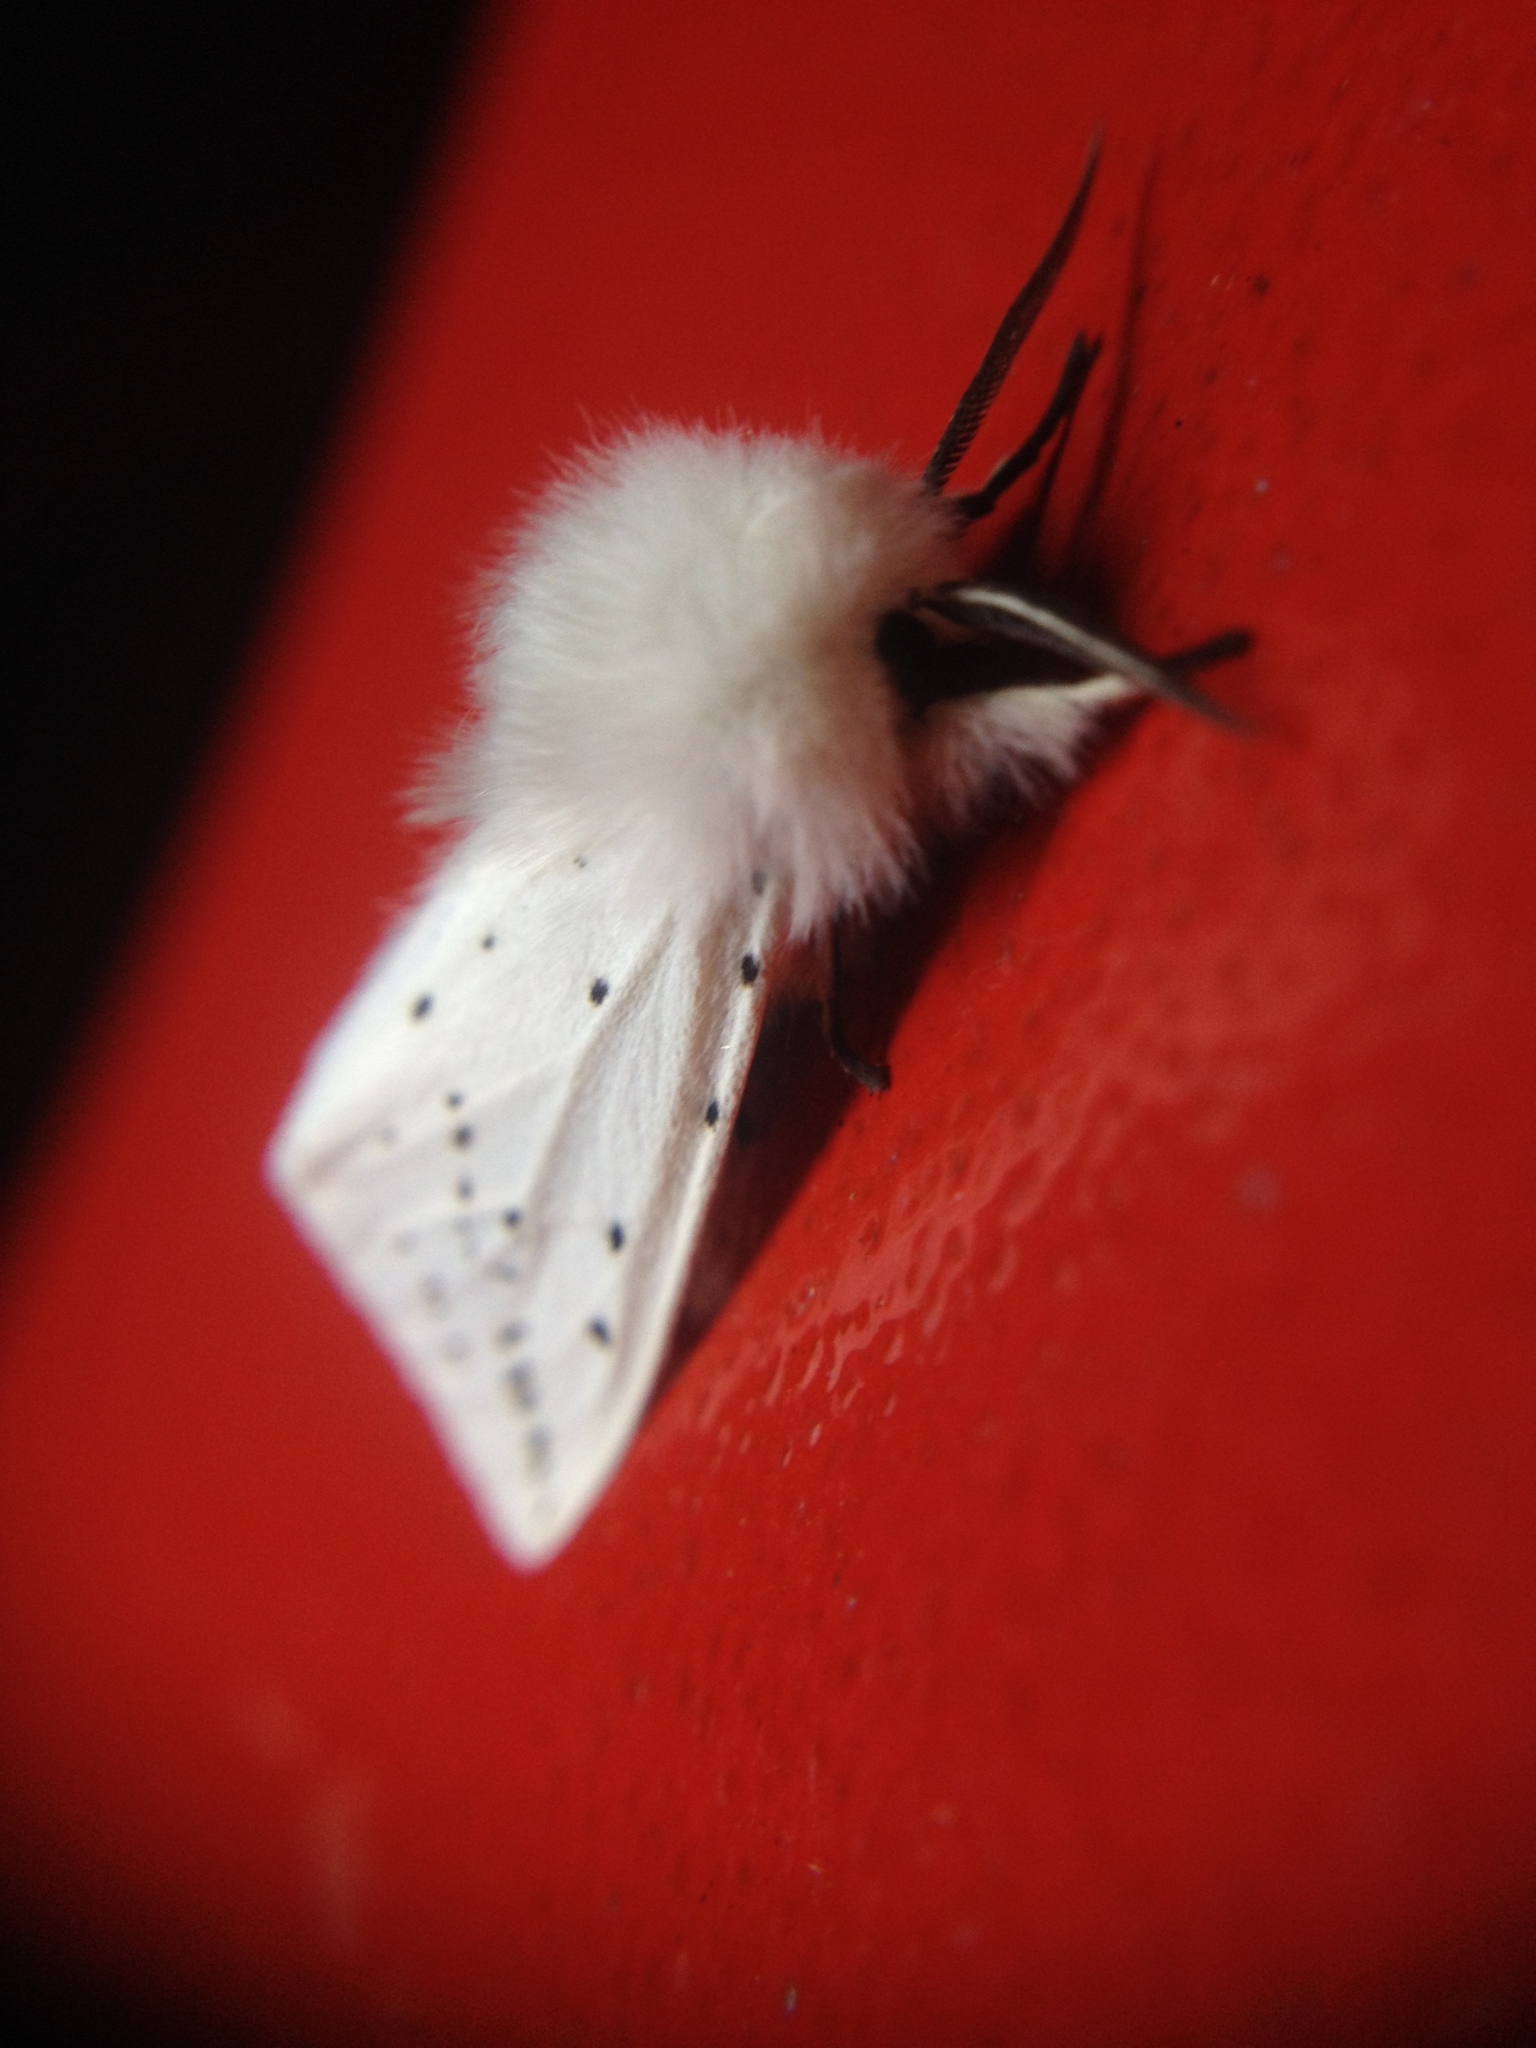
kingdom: Animalia
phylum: Arthropoda
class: Insecta
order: Lepidoptera
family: Erebidae
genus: Spilosoma
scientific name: Spilosoma lubricipeda
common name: White ermine
